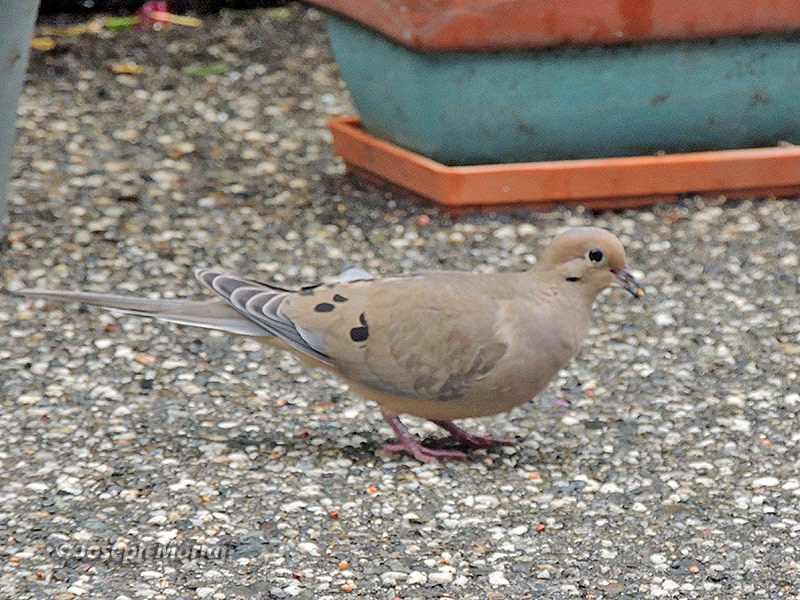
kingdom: Animalia
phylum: Chordata
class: Aves
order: Columbiformes
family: Columbidae
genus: Zenaida
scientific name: Zenaida macroura
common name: Mourning dove
